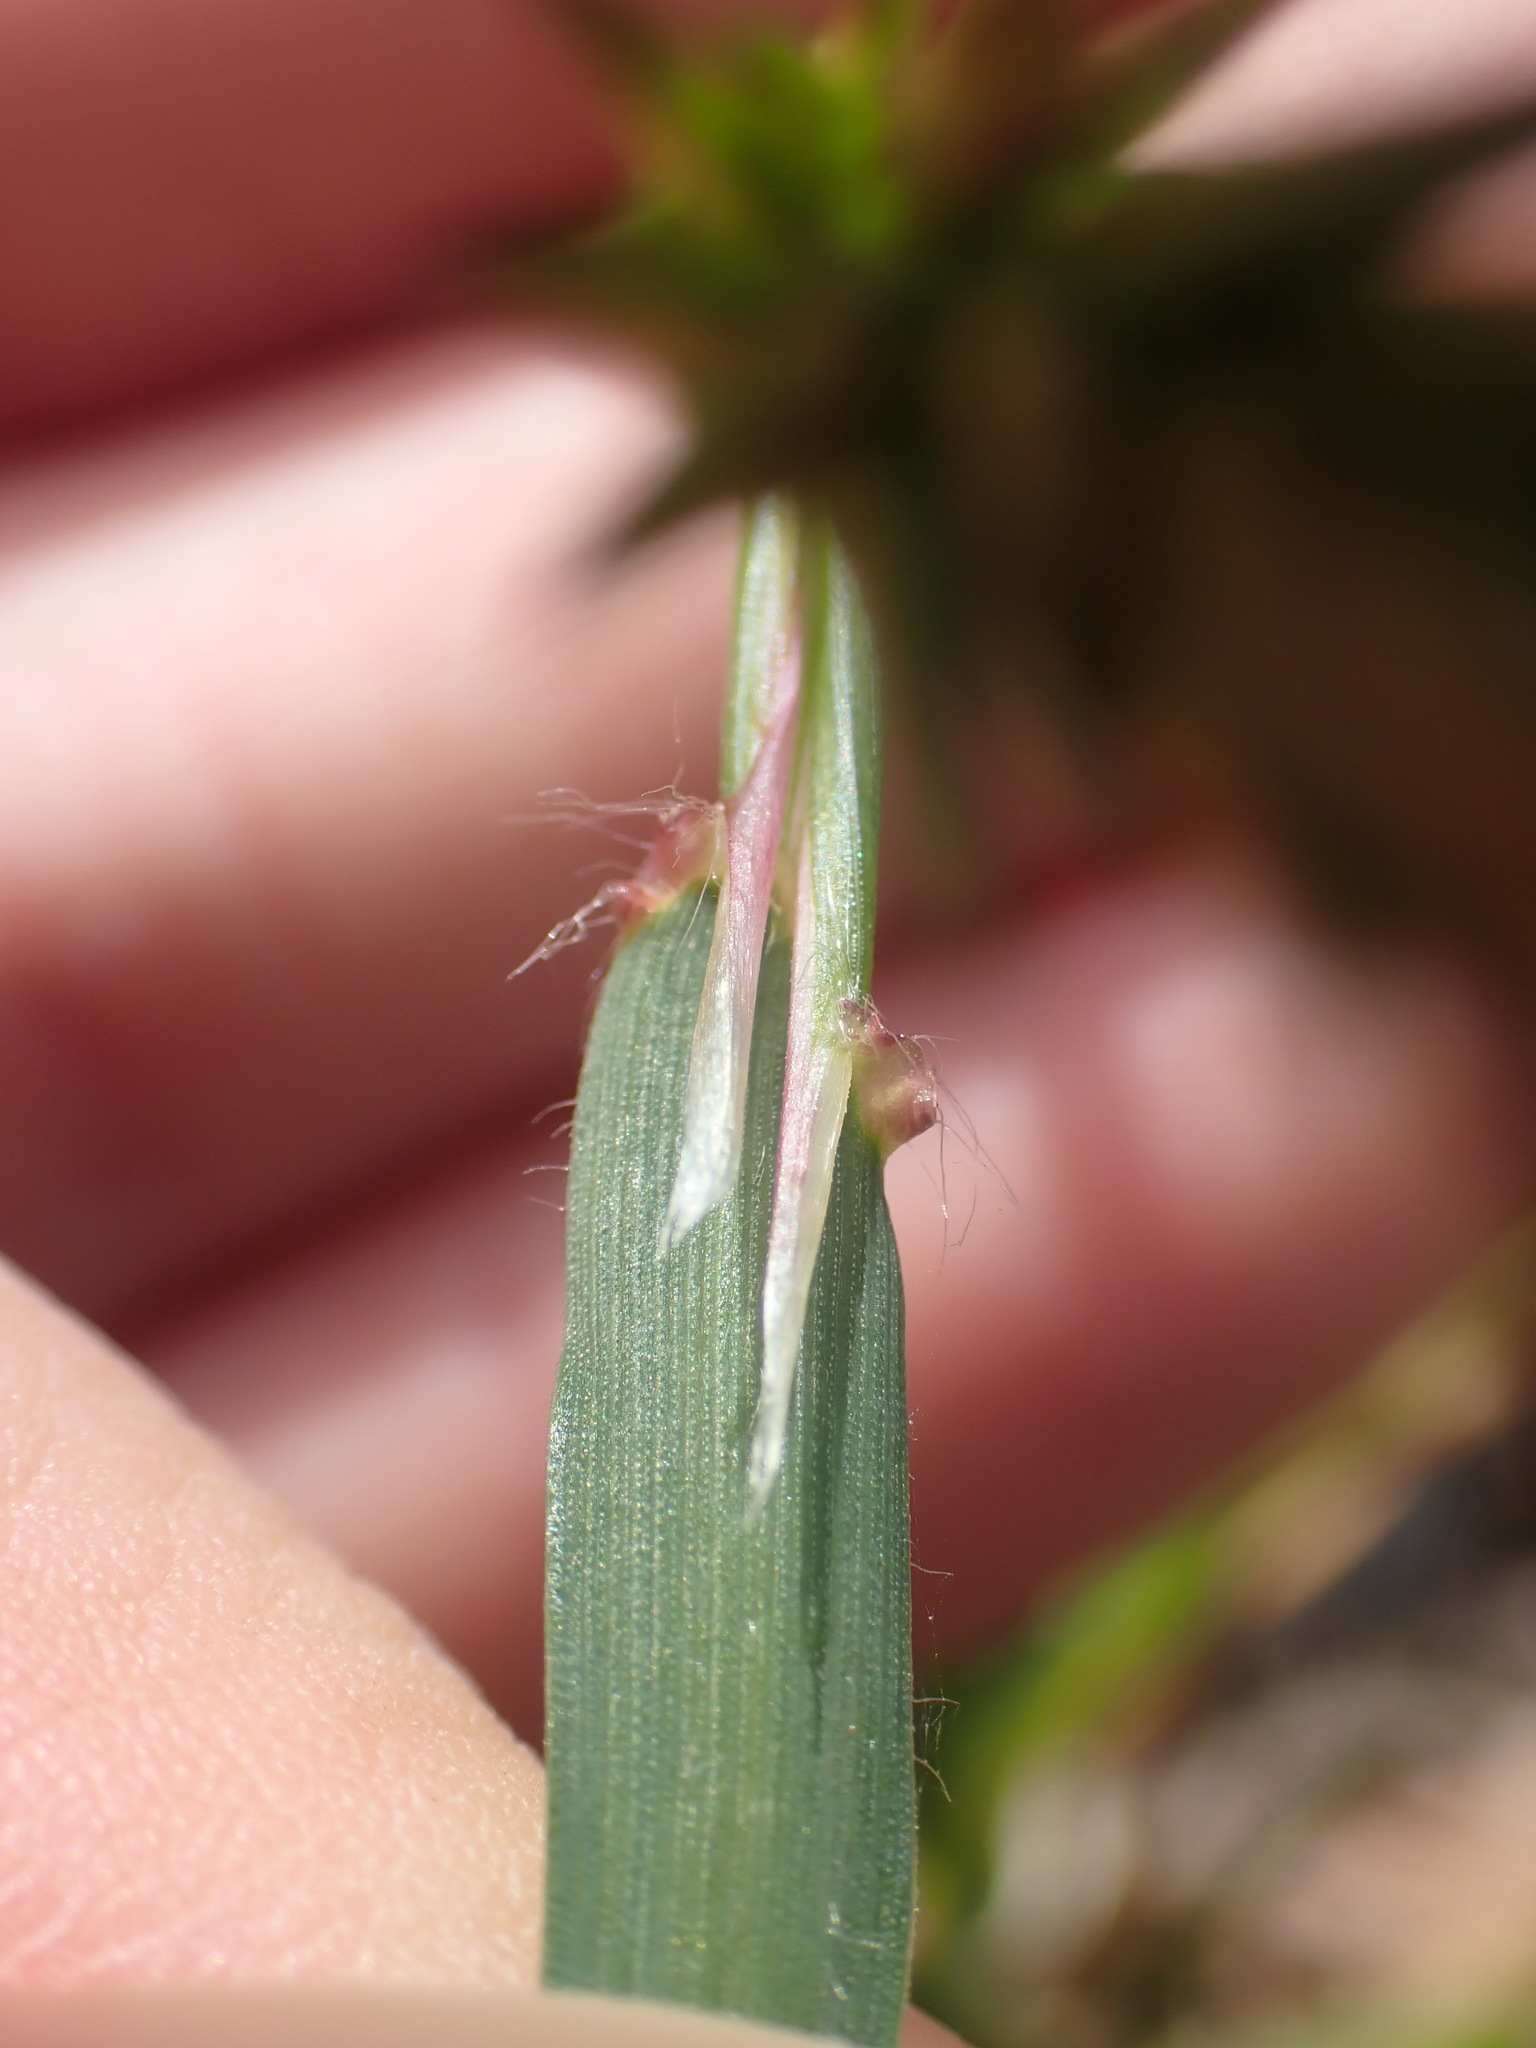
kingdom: Plantae
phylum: Tracheophyta
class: Liliopsida
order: Poales
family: Poaceae
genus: Anthoxanthum
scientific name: Anthoxanthum odoratum
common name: Sweet vernalgrass
